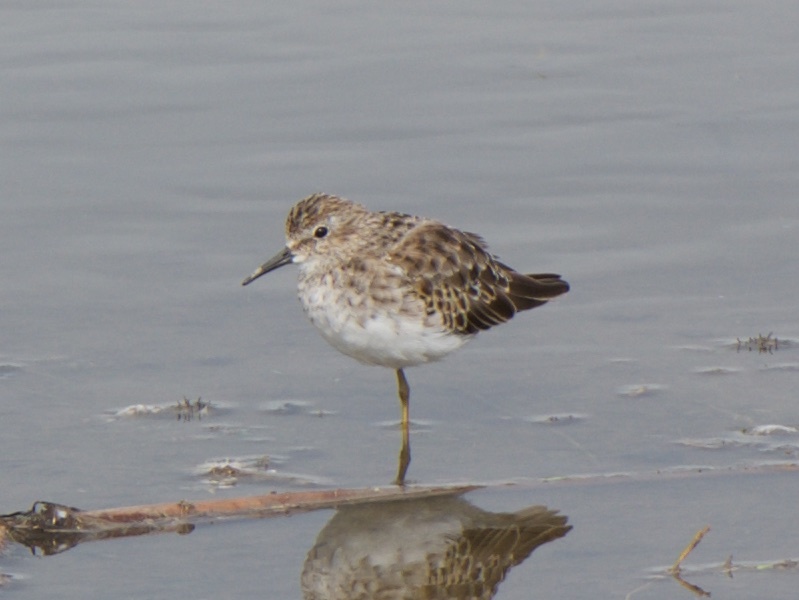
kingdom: Animalia
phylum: Chordata
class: Aves
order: Charadriiformes
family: Scolopacidae
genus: Calidris
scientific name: Calidris minutilla
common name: Least sandpiper
